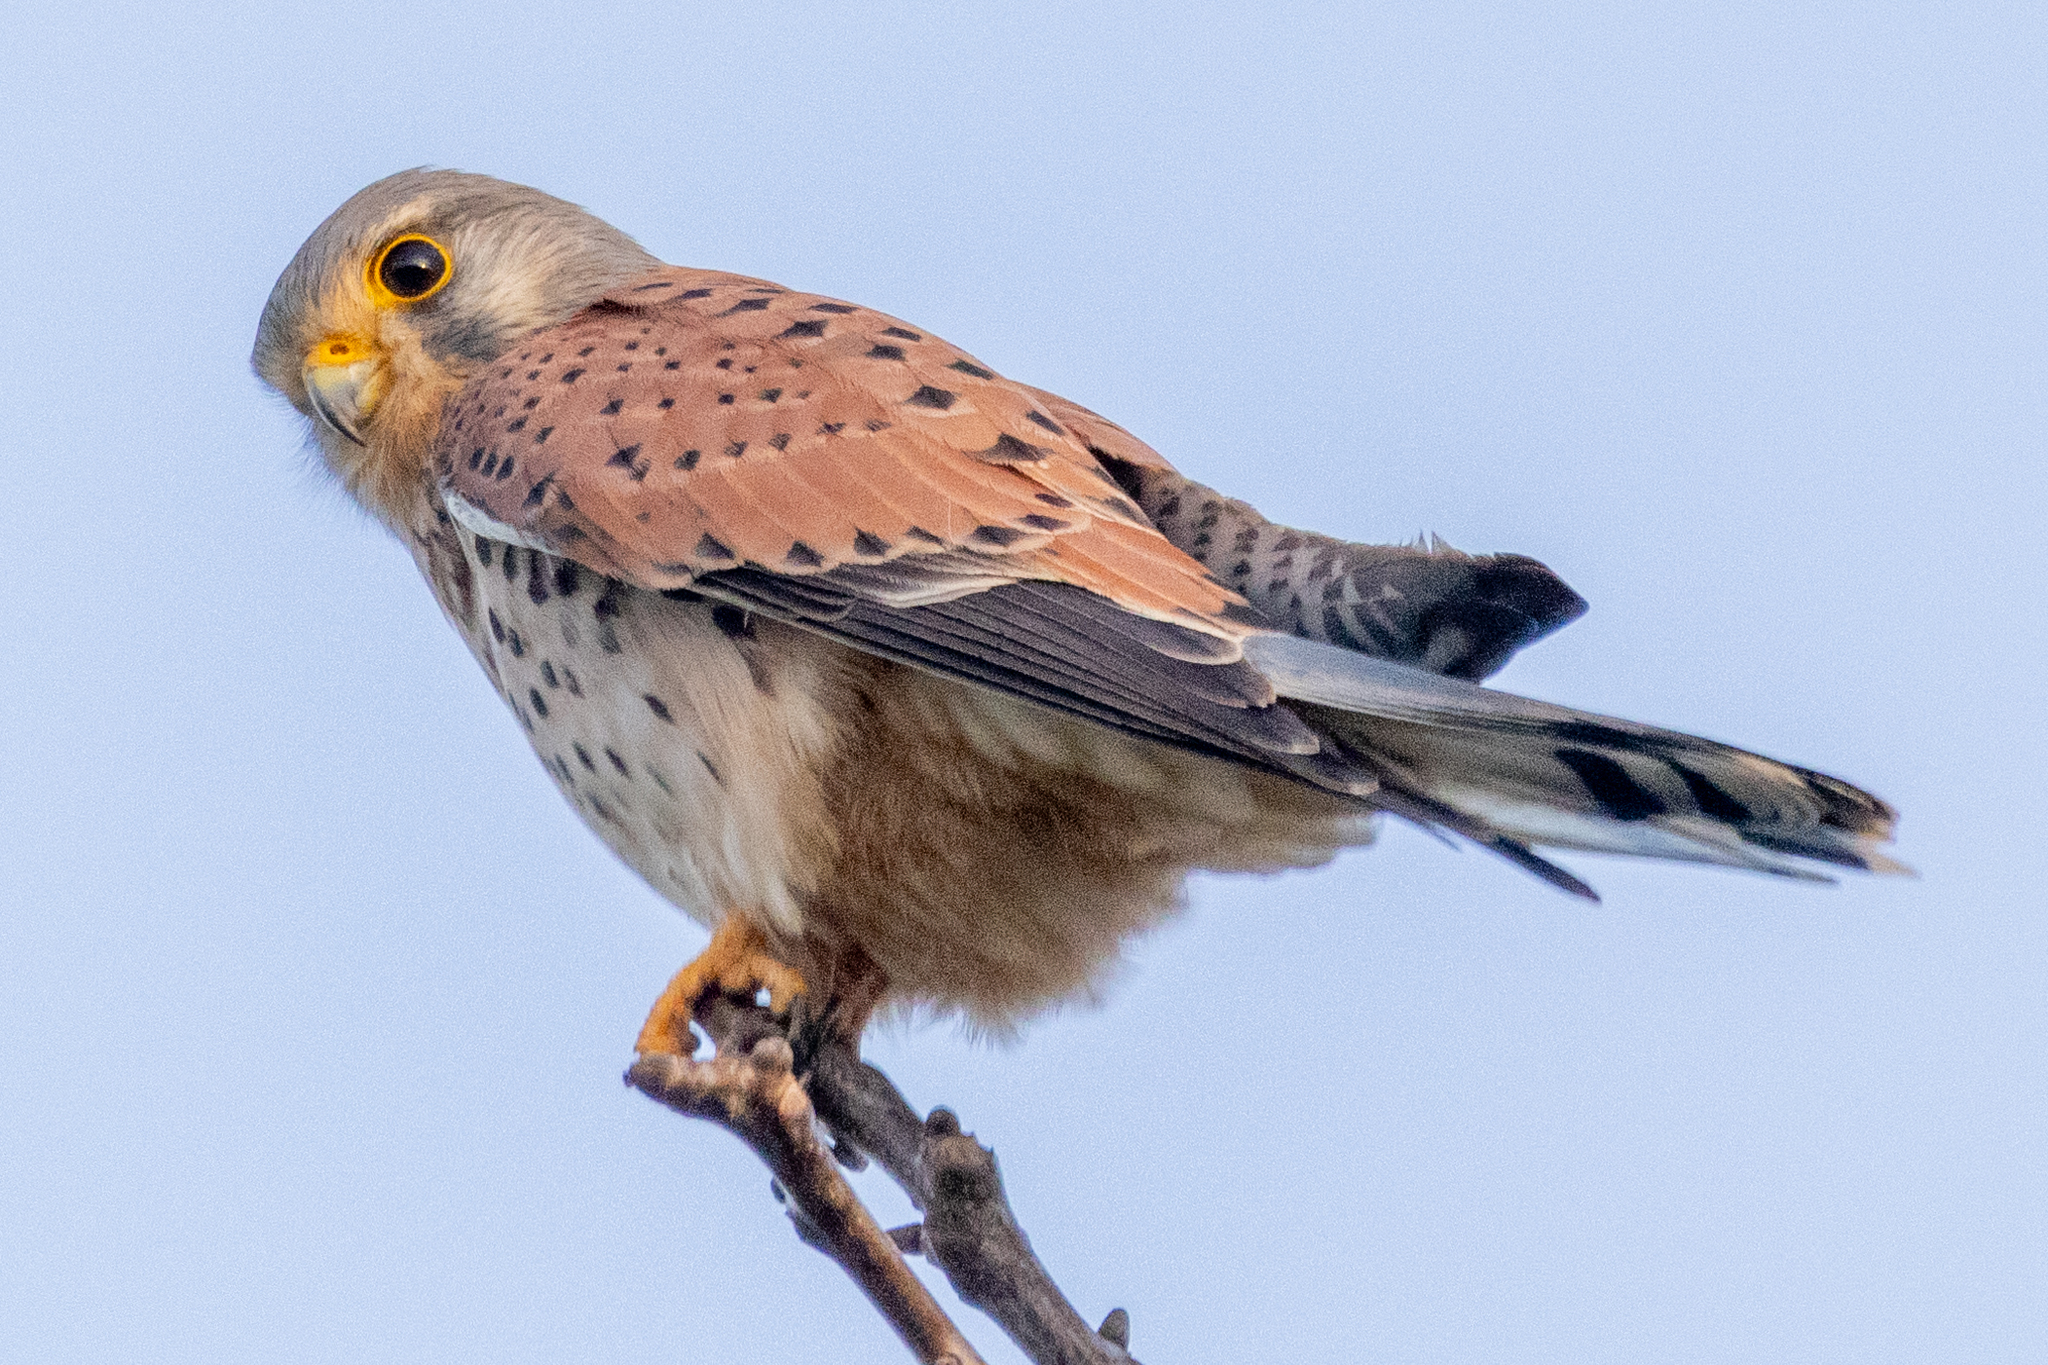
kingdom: Animalia
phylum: Chordata
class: Aves
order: Falconiformes
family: Falconidae
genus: Falco
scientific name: Falco tinnunculus
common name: Common kestrel
